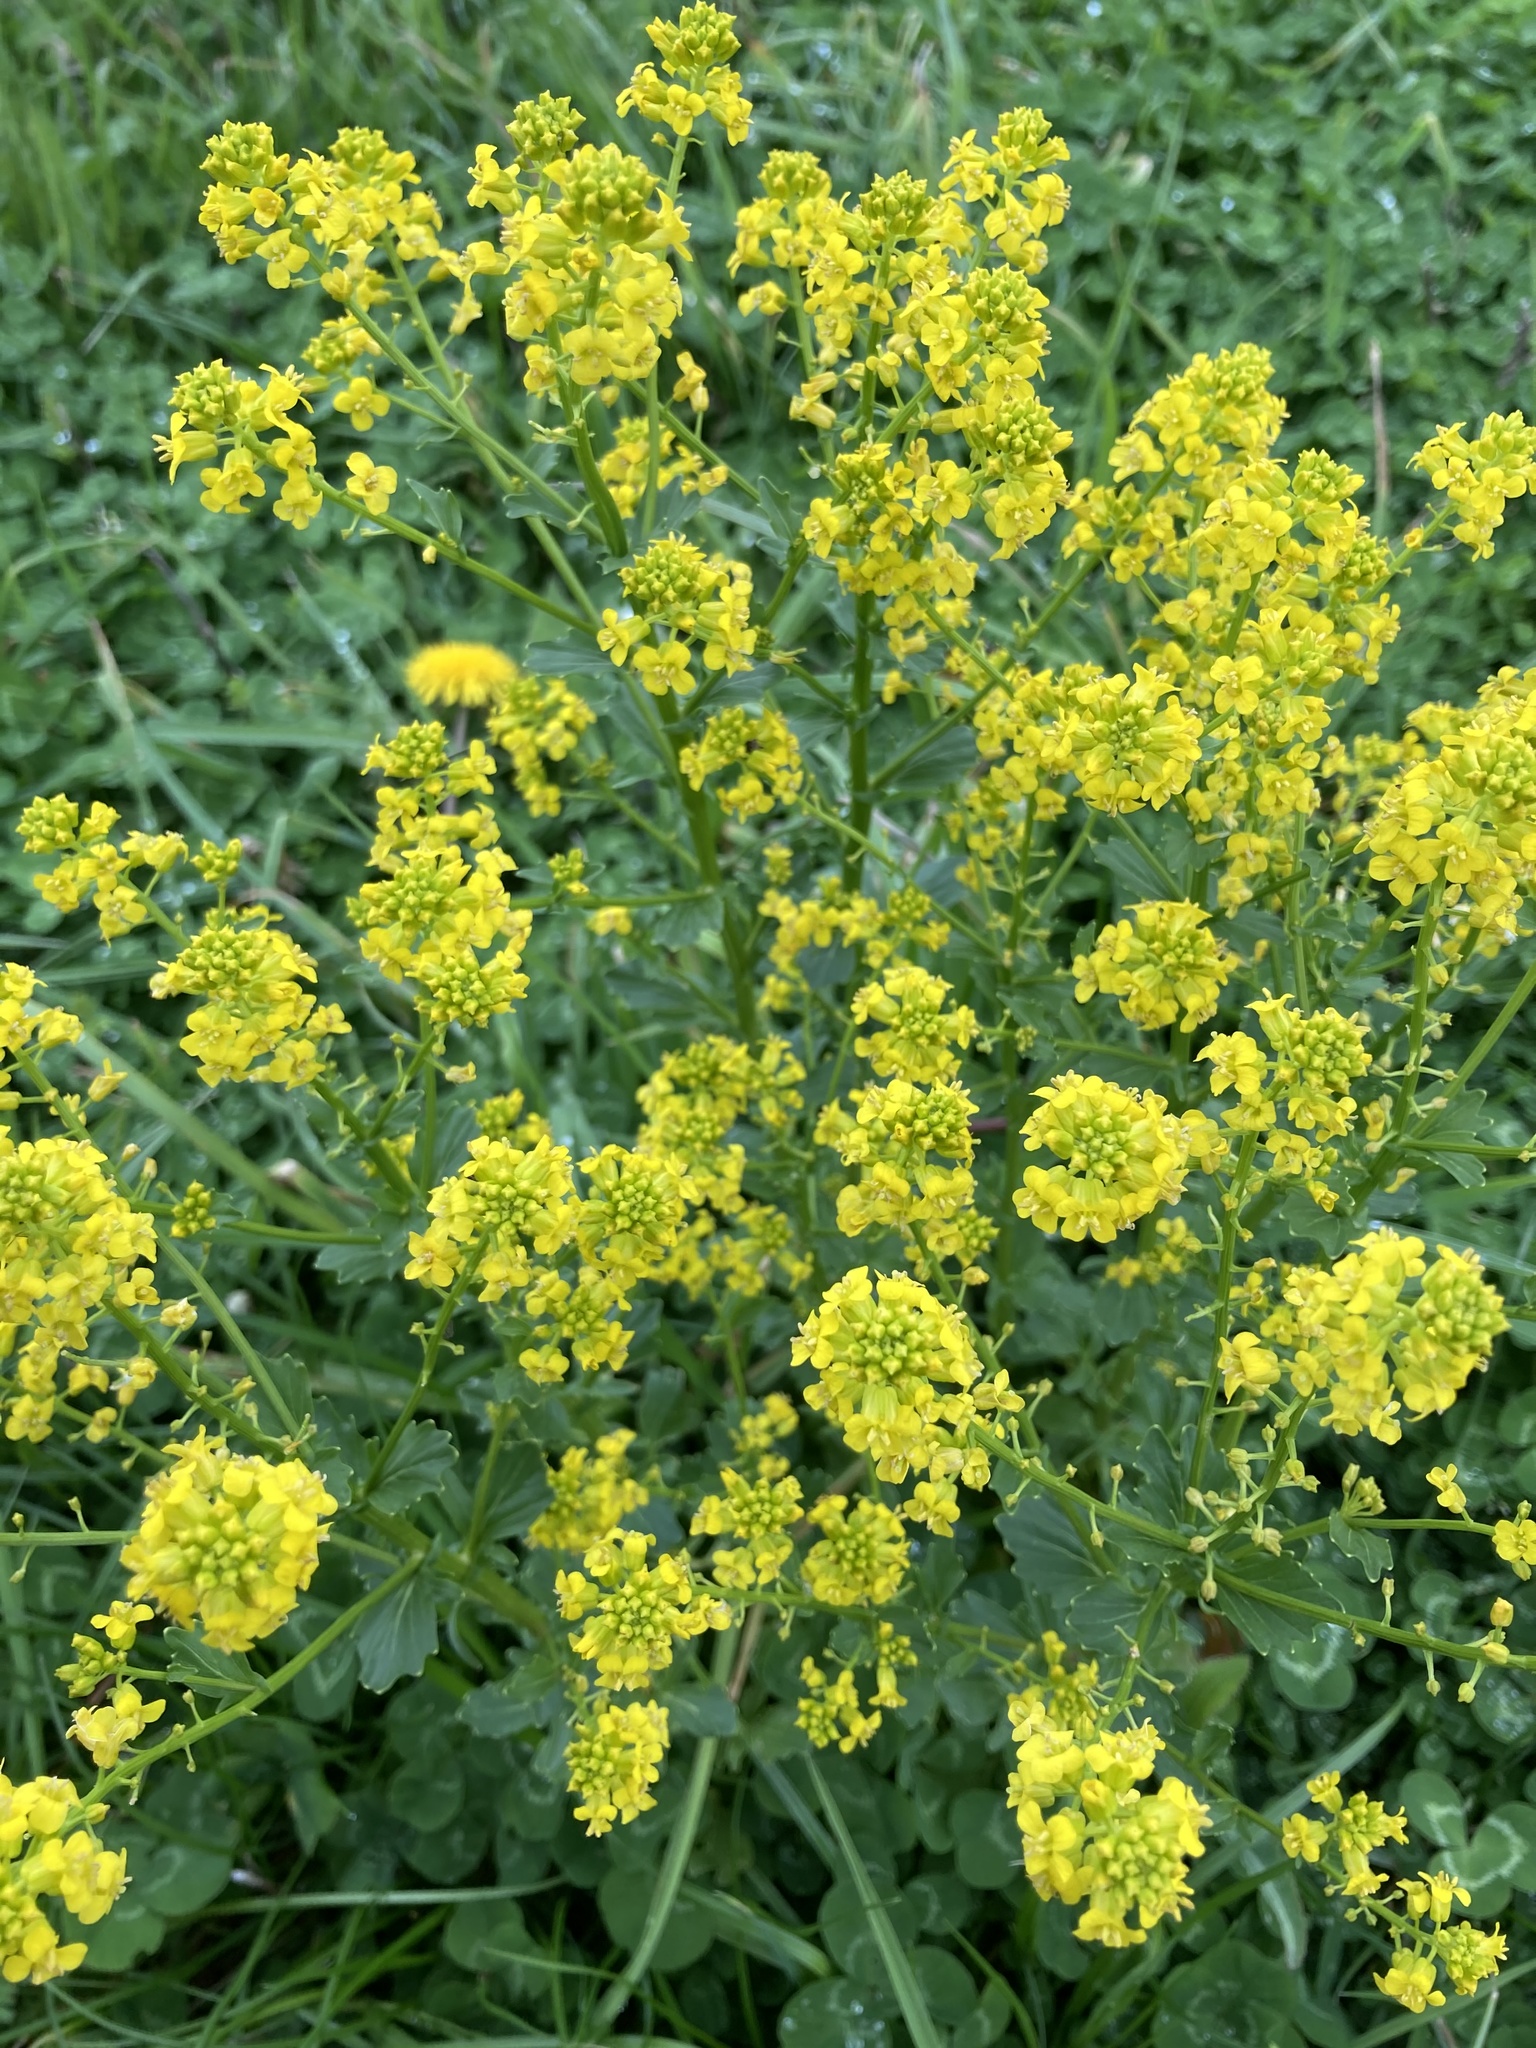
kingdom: Plantae
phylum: Tracheophyta
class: Magnoliopsida
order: Brassicales
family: Brassicaceae
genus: Barbarea
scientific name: Barbarea vulgaris
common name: Cressy-greens
